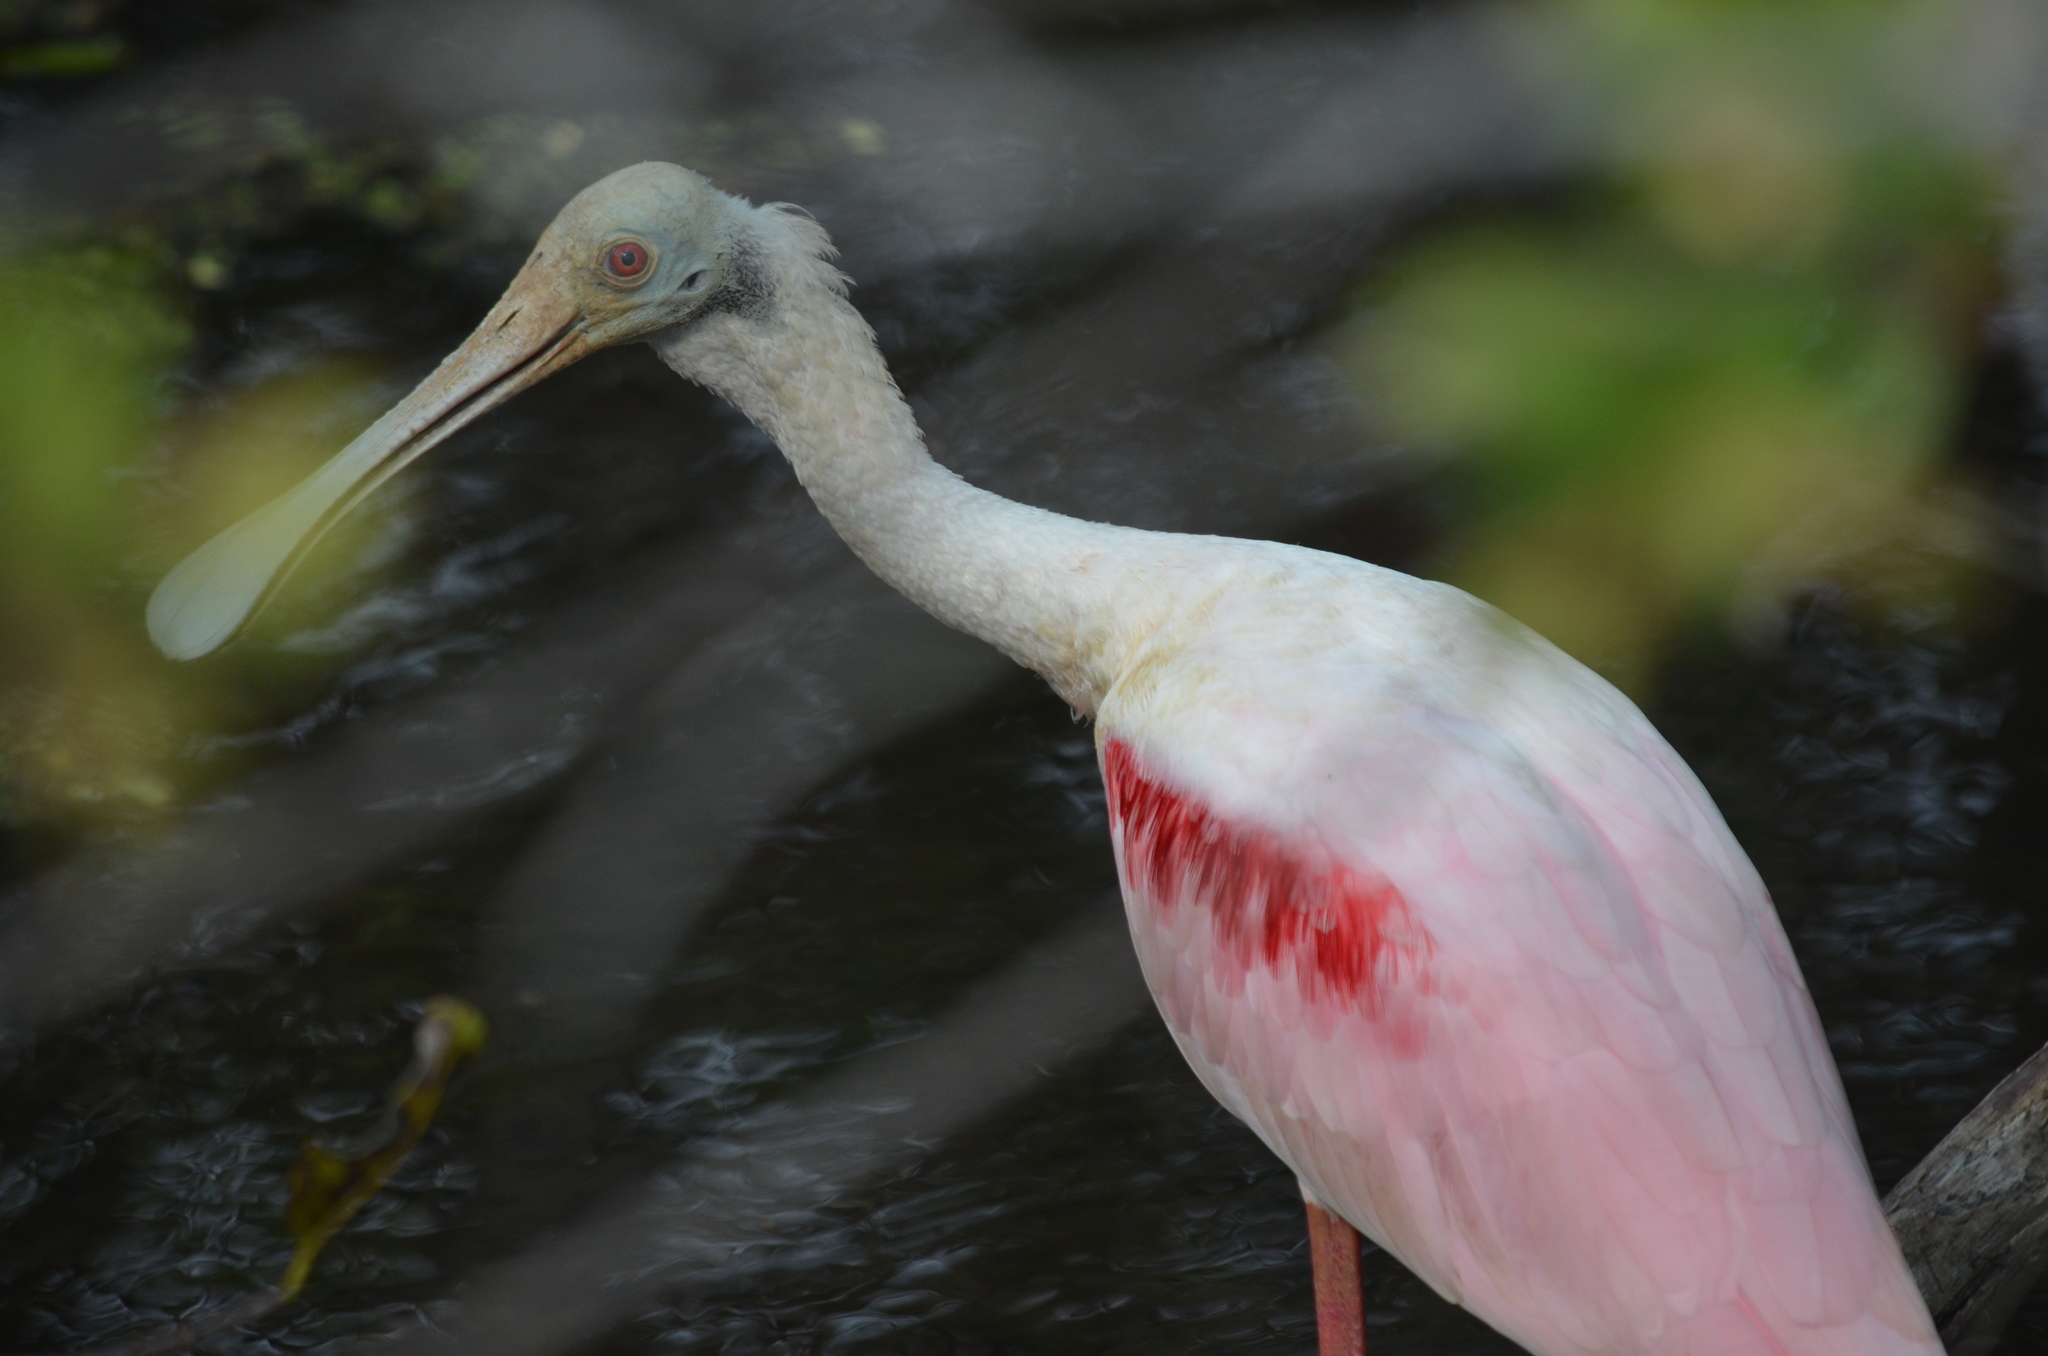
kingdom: Animalia
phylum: Chordata
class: Aves
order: Pelecaniformes
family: Threskiornithidae
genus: Platalea
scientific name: Platalea ajaja
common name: Roseate spoonbill
